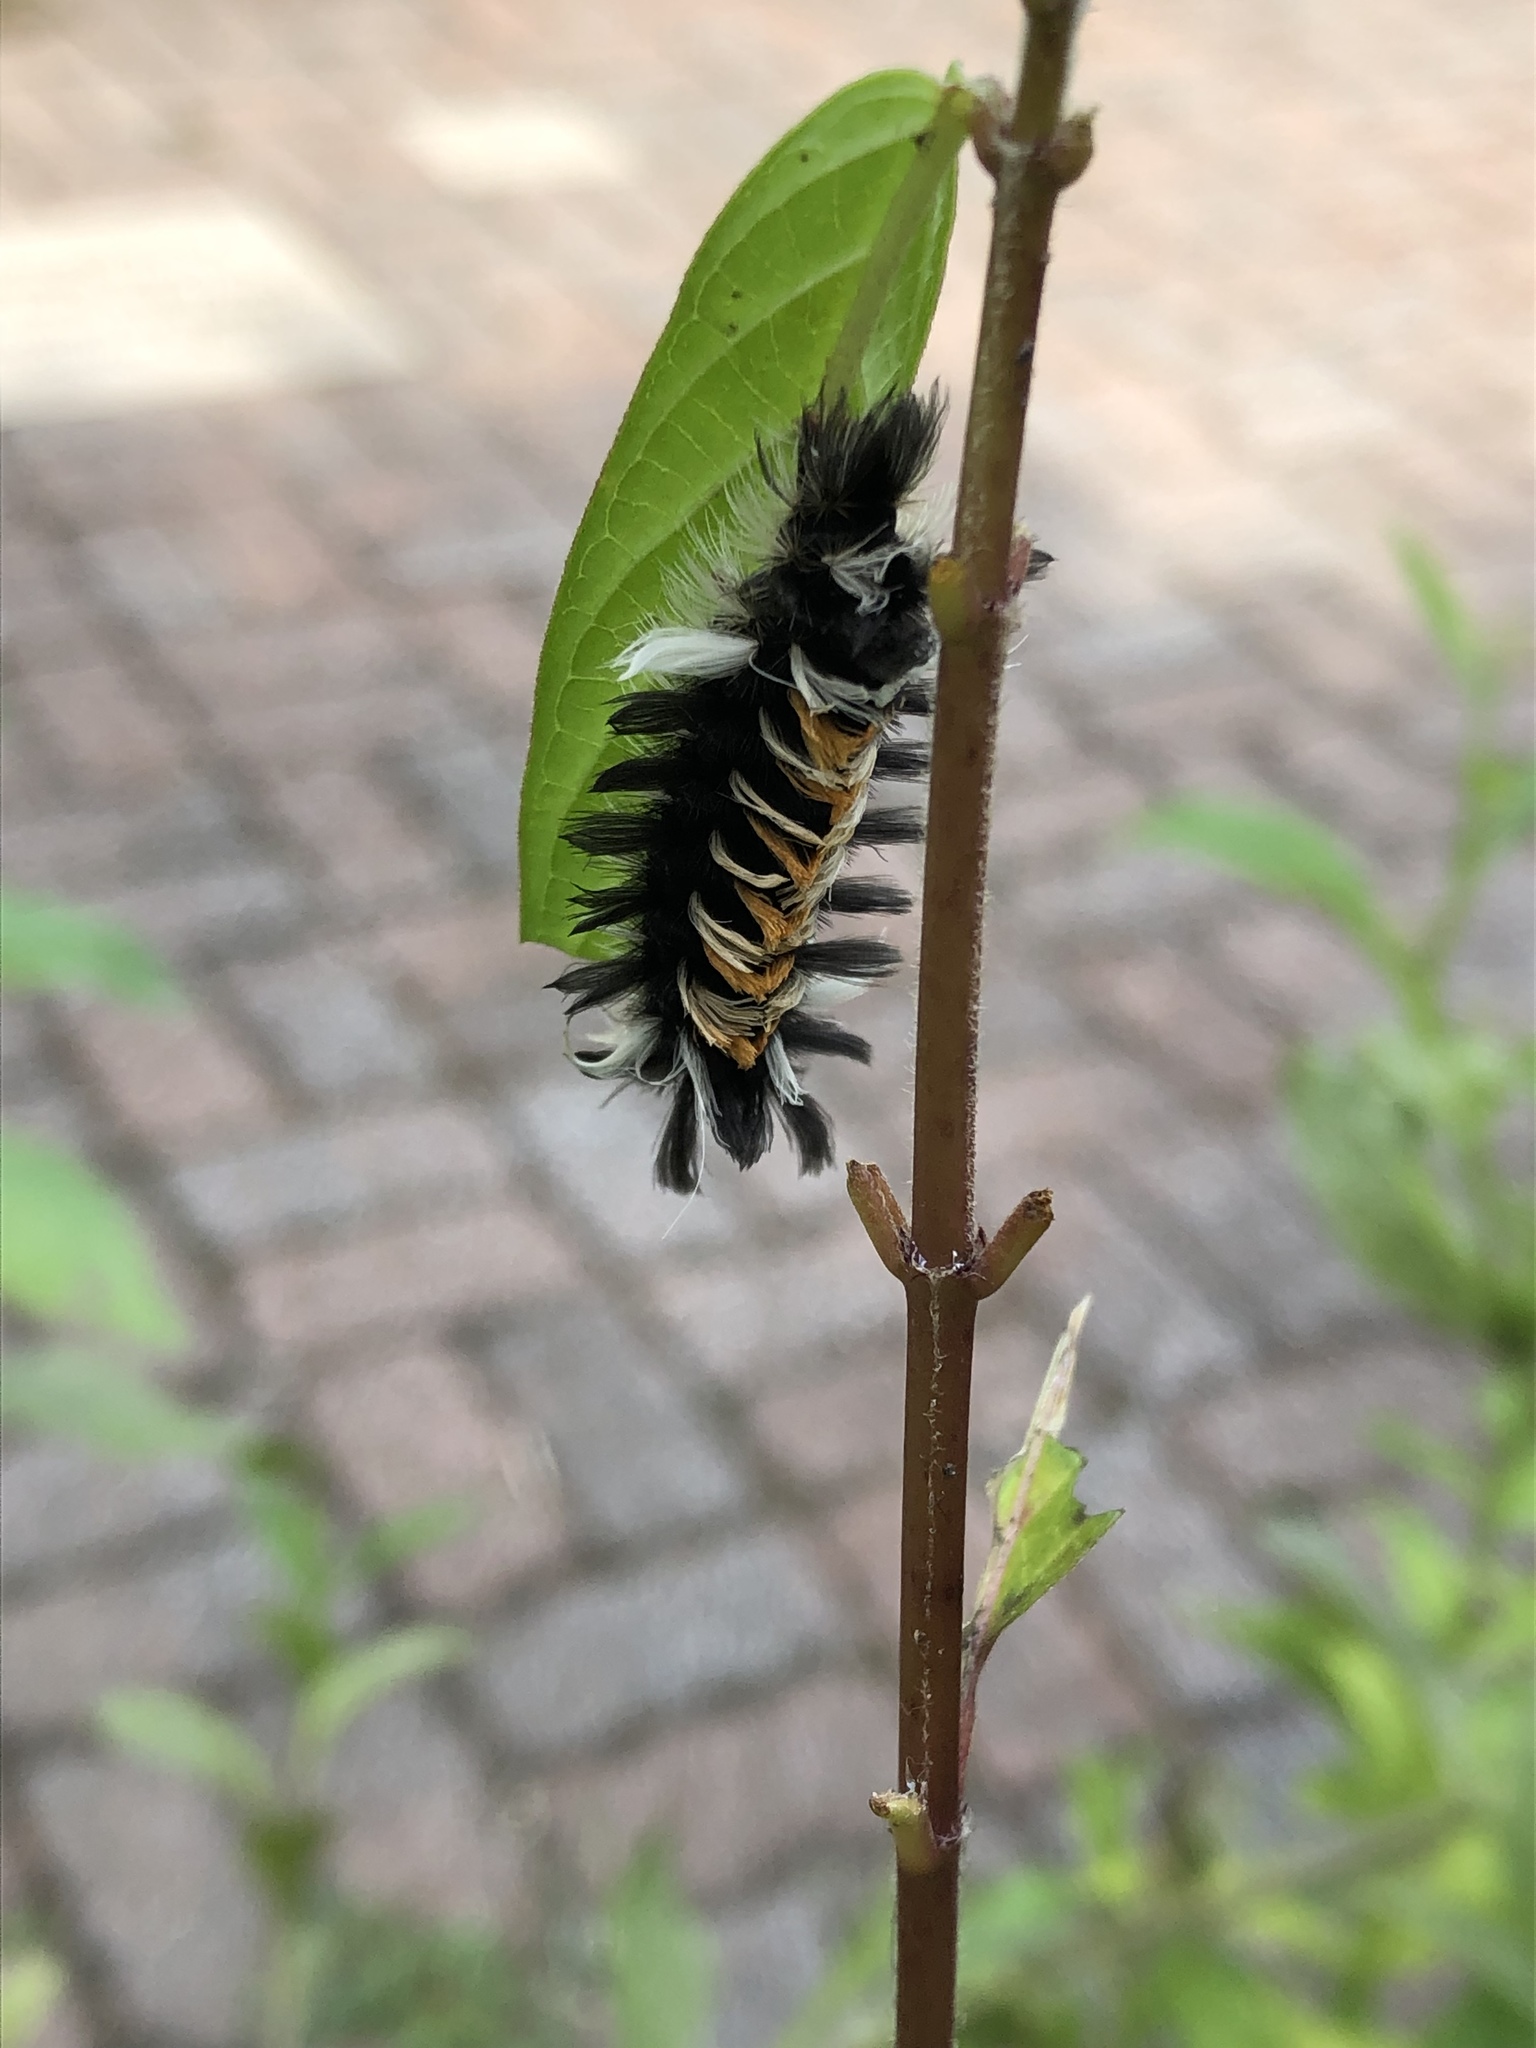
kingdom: Animalia
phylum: Arthropoda
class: Insecta
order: Lepidoptera
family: Erebidae
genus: Euchaetes
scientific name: Euchaetes egle
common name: Milkweed tussock moth
